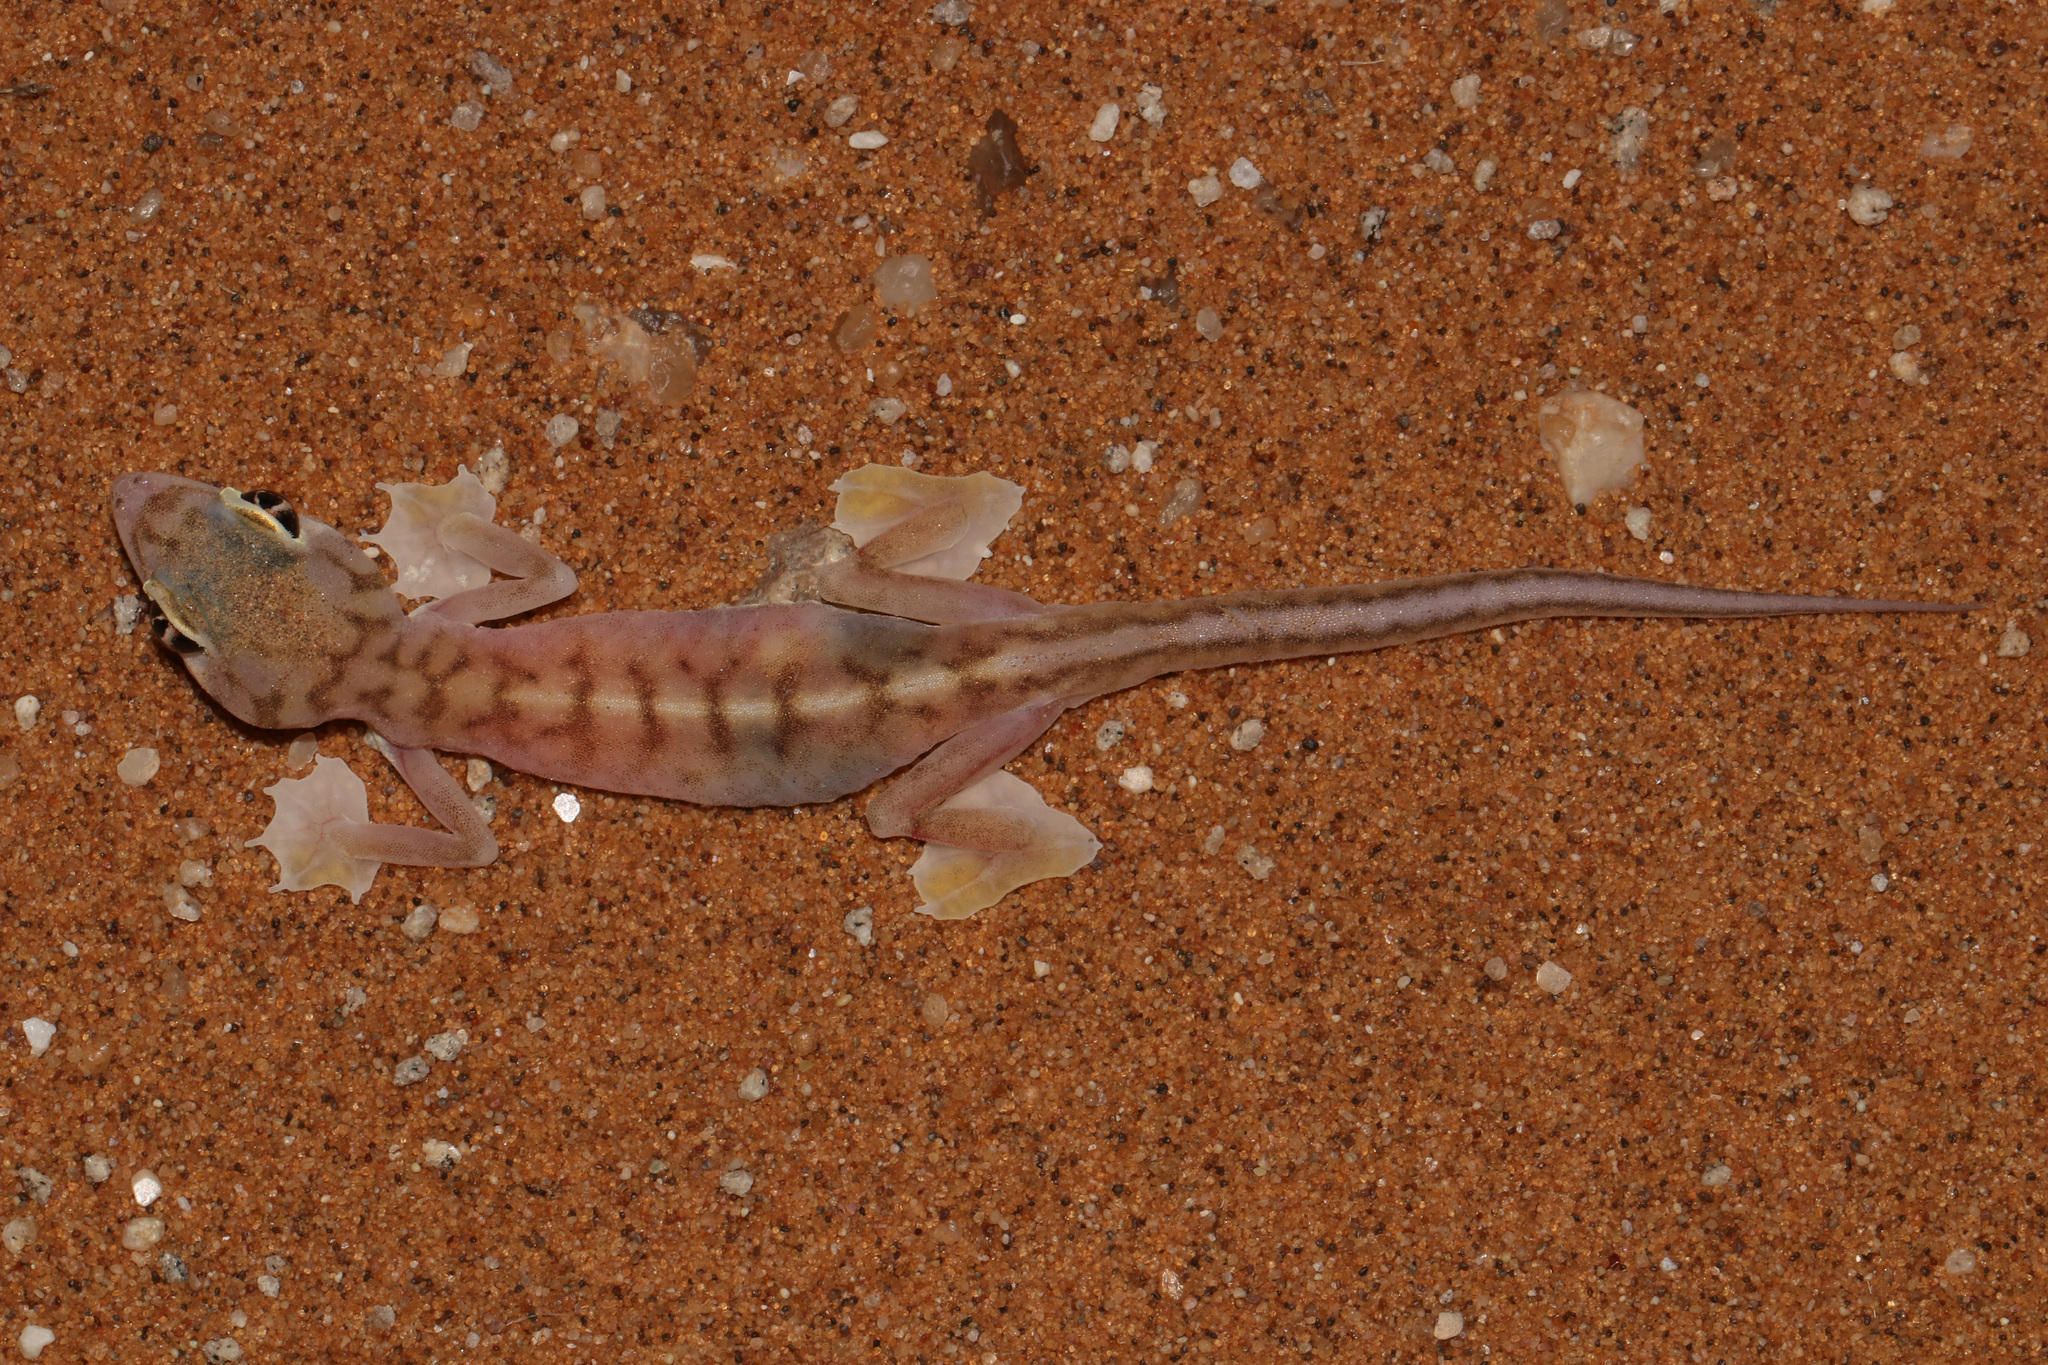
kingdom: Animalia
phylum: Chordata
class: Squamata
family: Gekkonidae
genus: Pachydactylus
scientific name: Pachydactylus rangei
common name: Namib sand gecko
